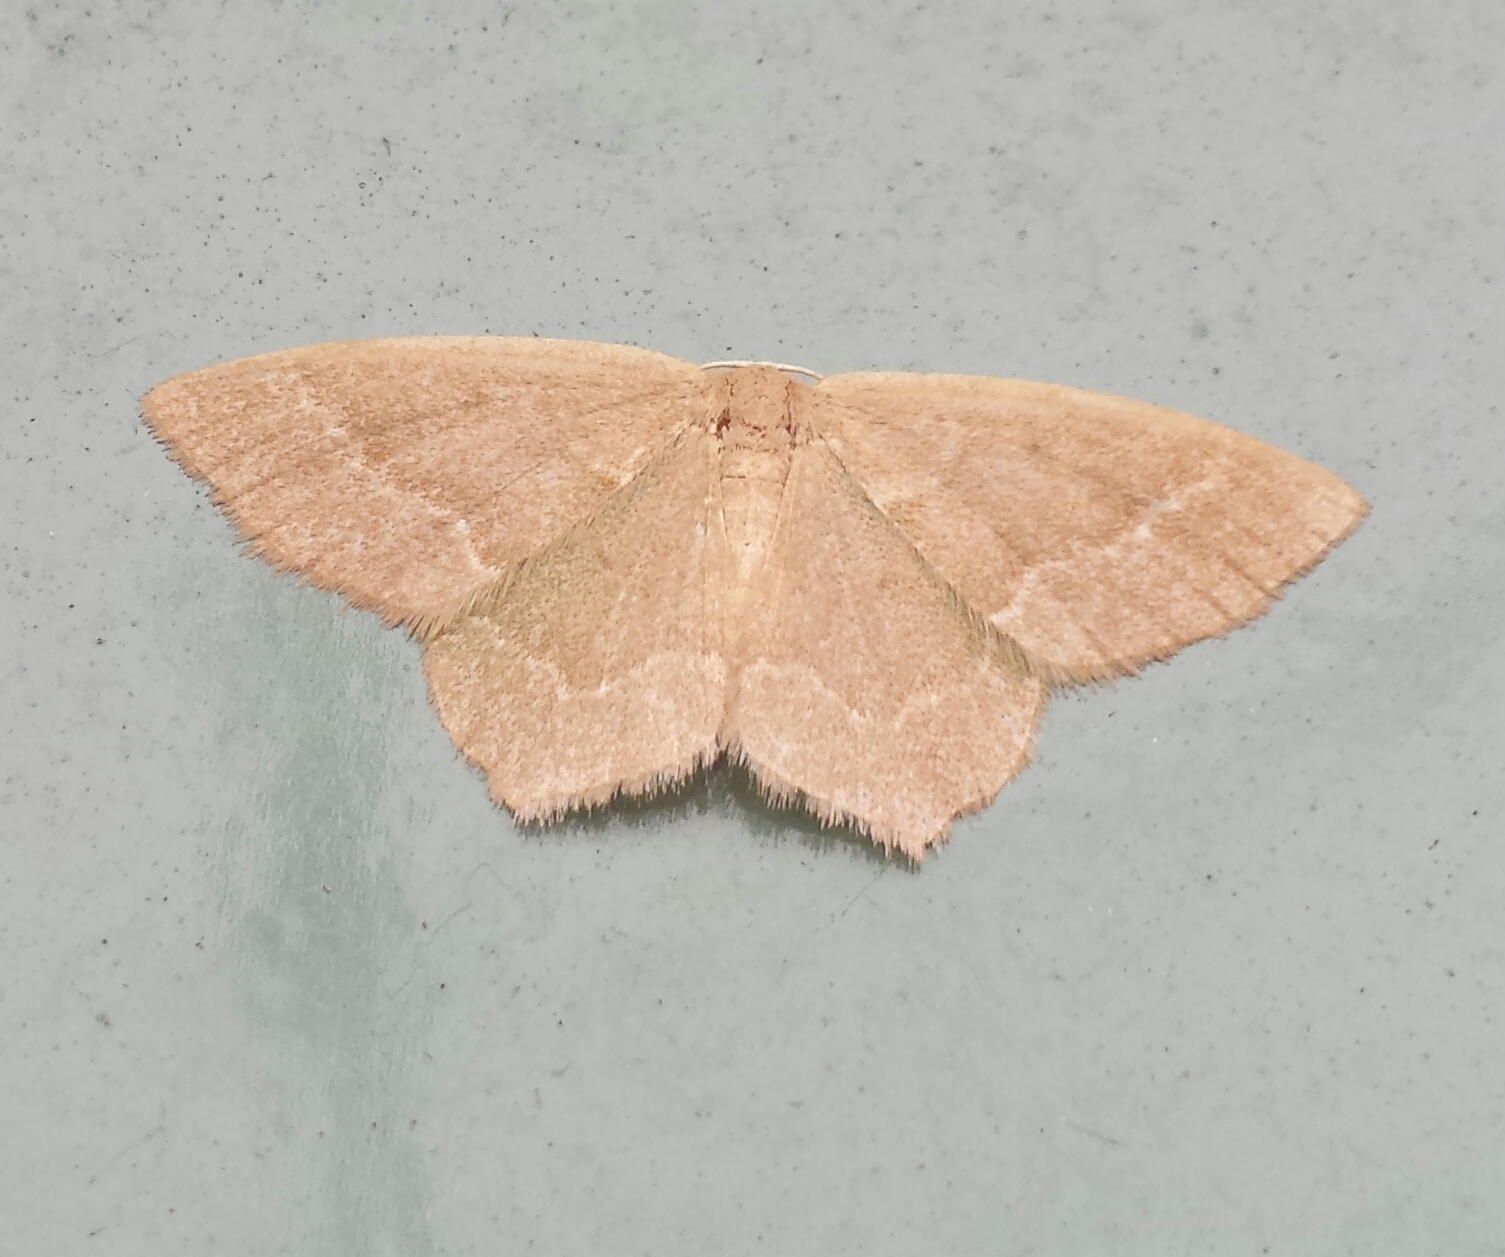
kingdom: Animalia
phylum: Arthropoda
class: Insecta
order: Lepidoptera
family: Geometridae
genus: Thalera
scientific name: Thalera pistasciaria
